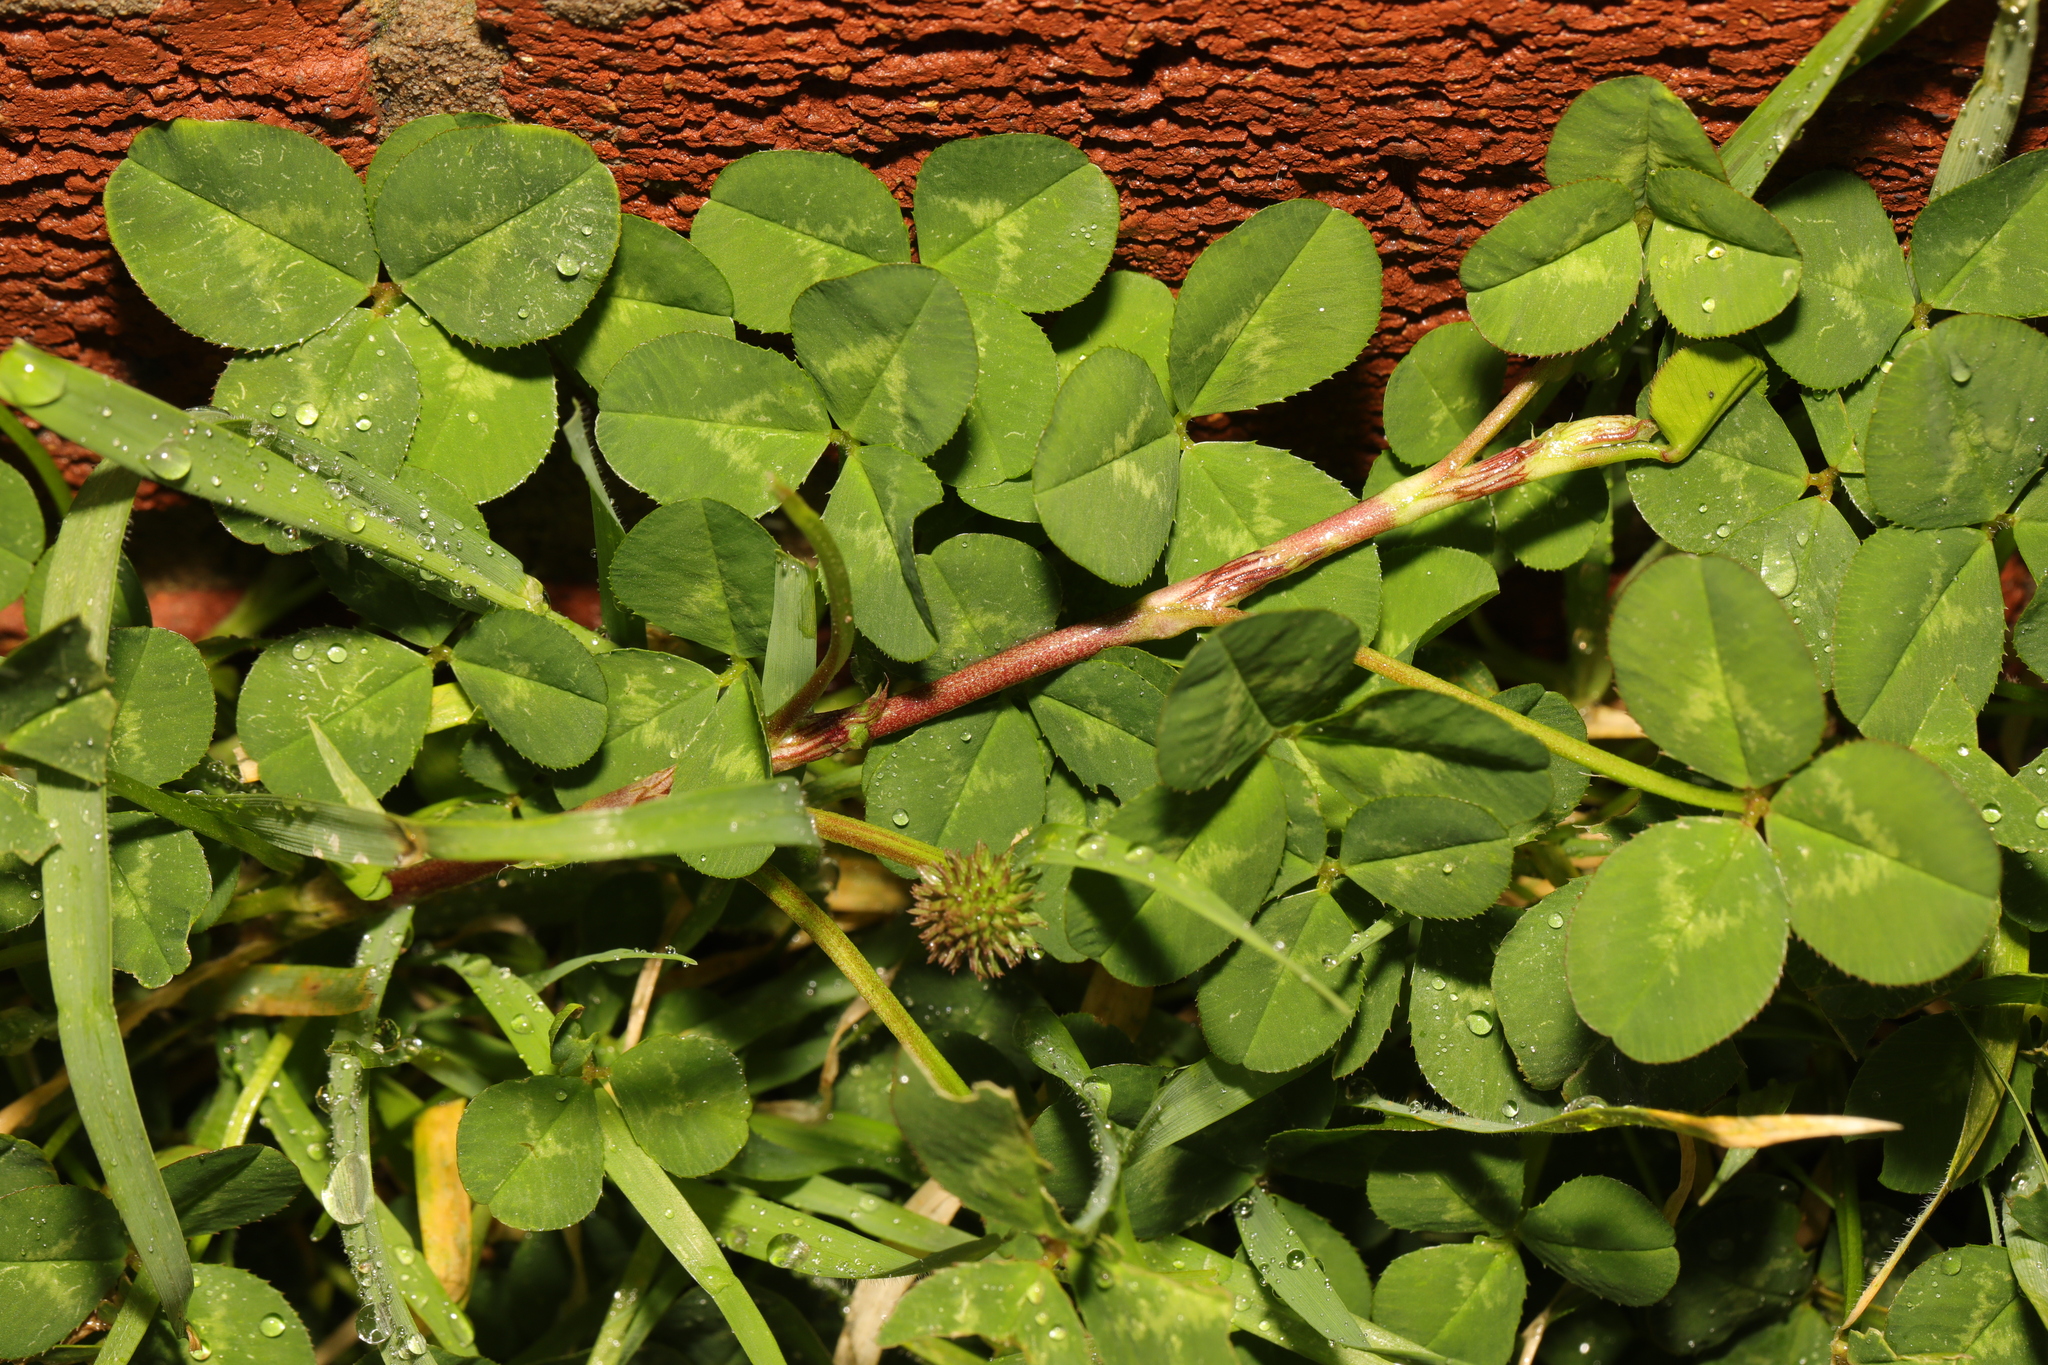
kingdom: Plantae
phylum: Tracheophyta
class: Magnoliopsida
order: Fabales
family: Fabaceae
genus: Trifolium
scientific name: Trifolium repens
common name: White clover
